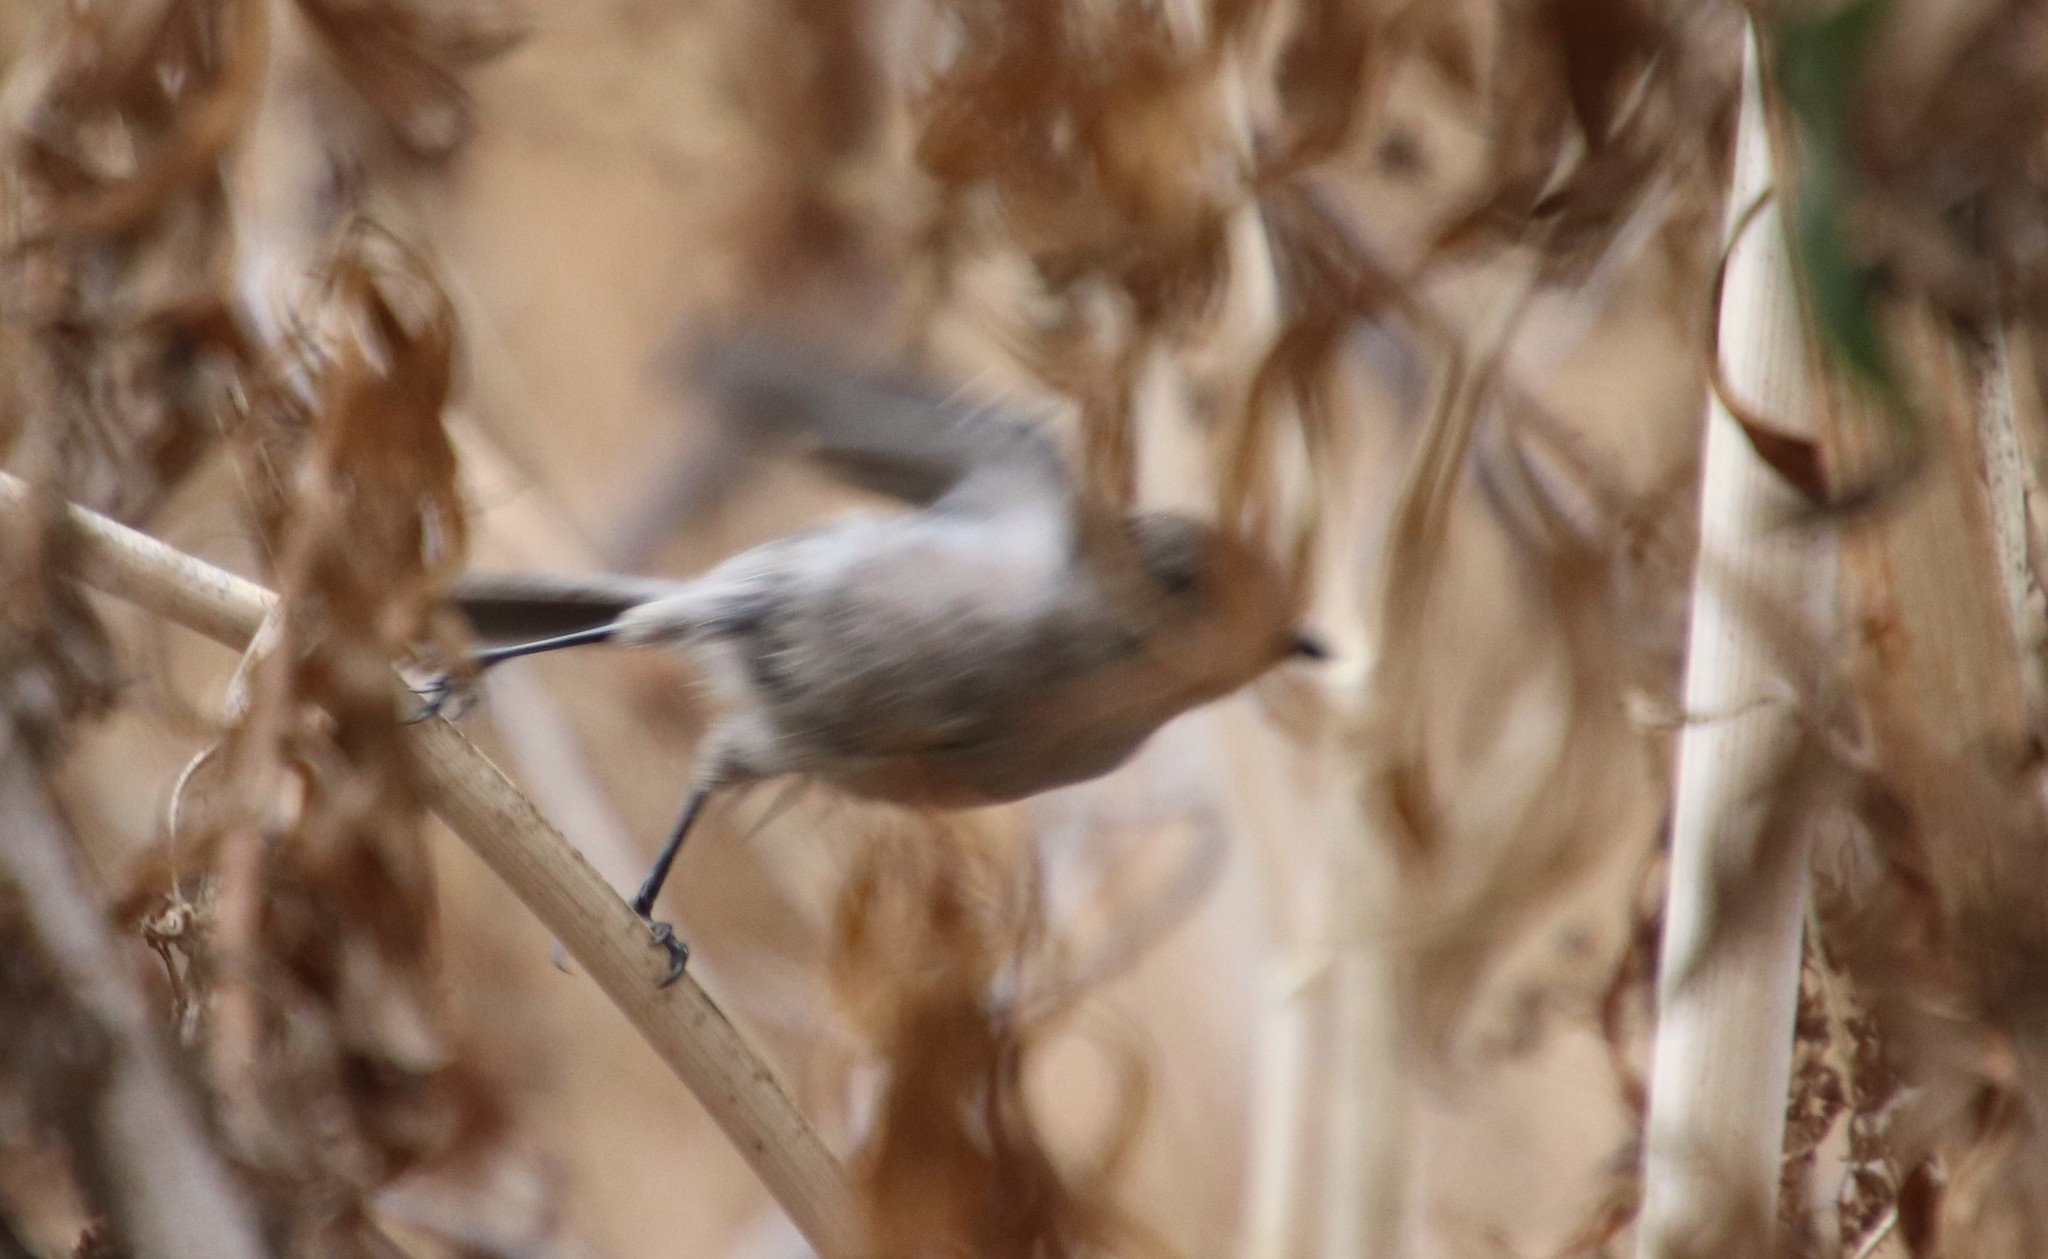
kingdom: Animalia
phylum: Chordata
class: Aves
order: Passeriformes
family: Aegithalidae
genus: Psaltriparus
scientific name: Psaltriparus minimus
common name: American bushtit
